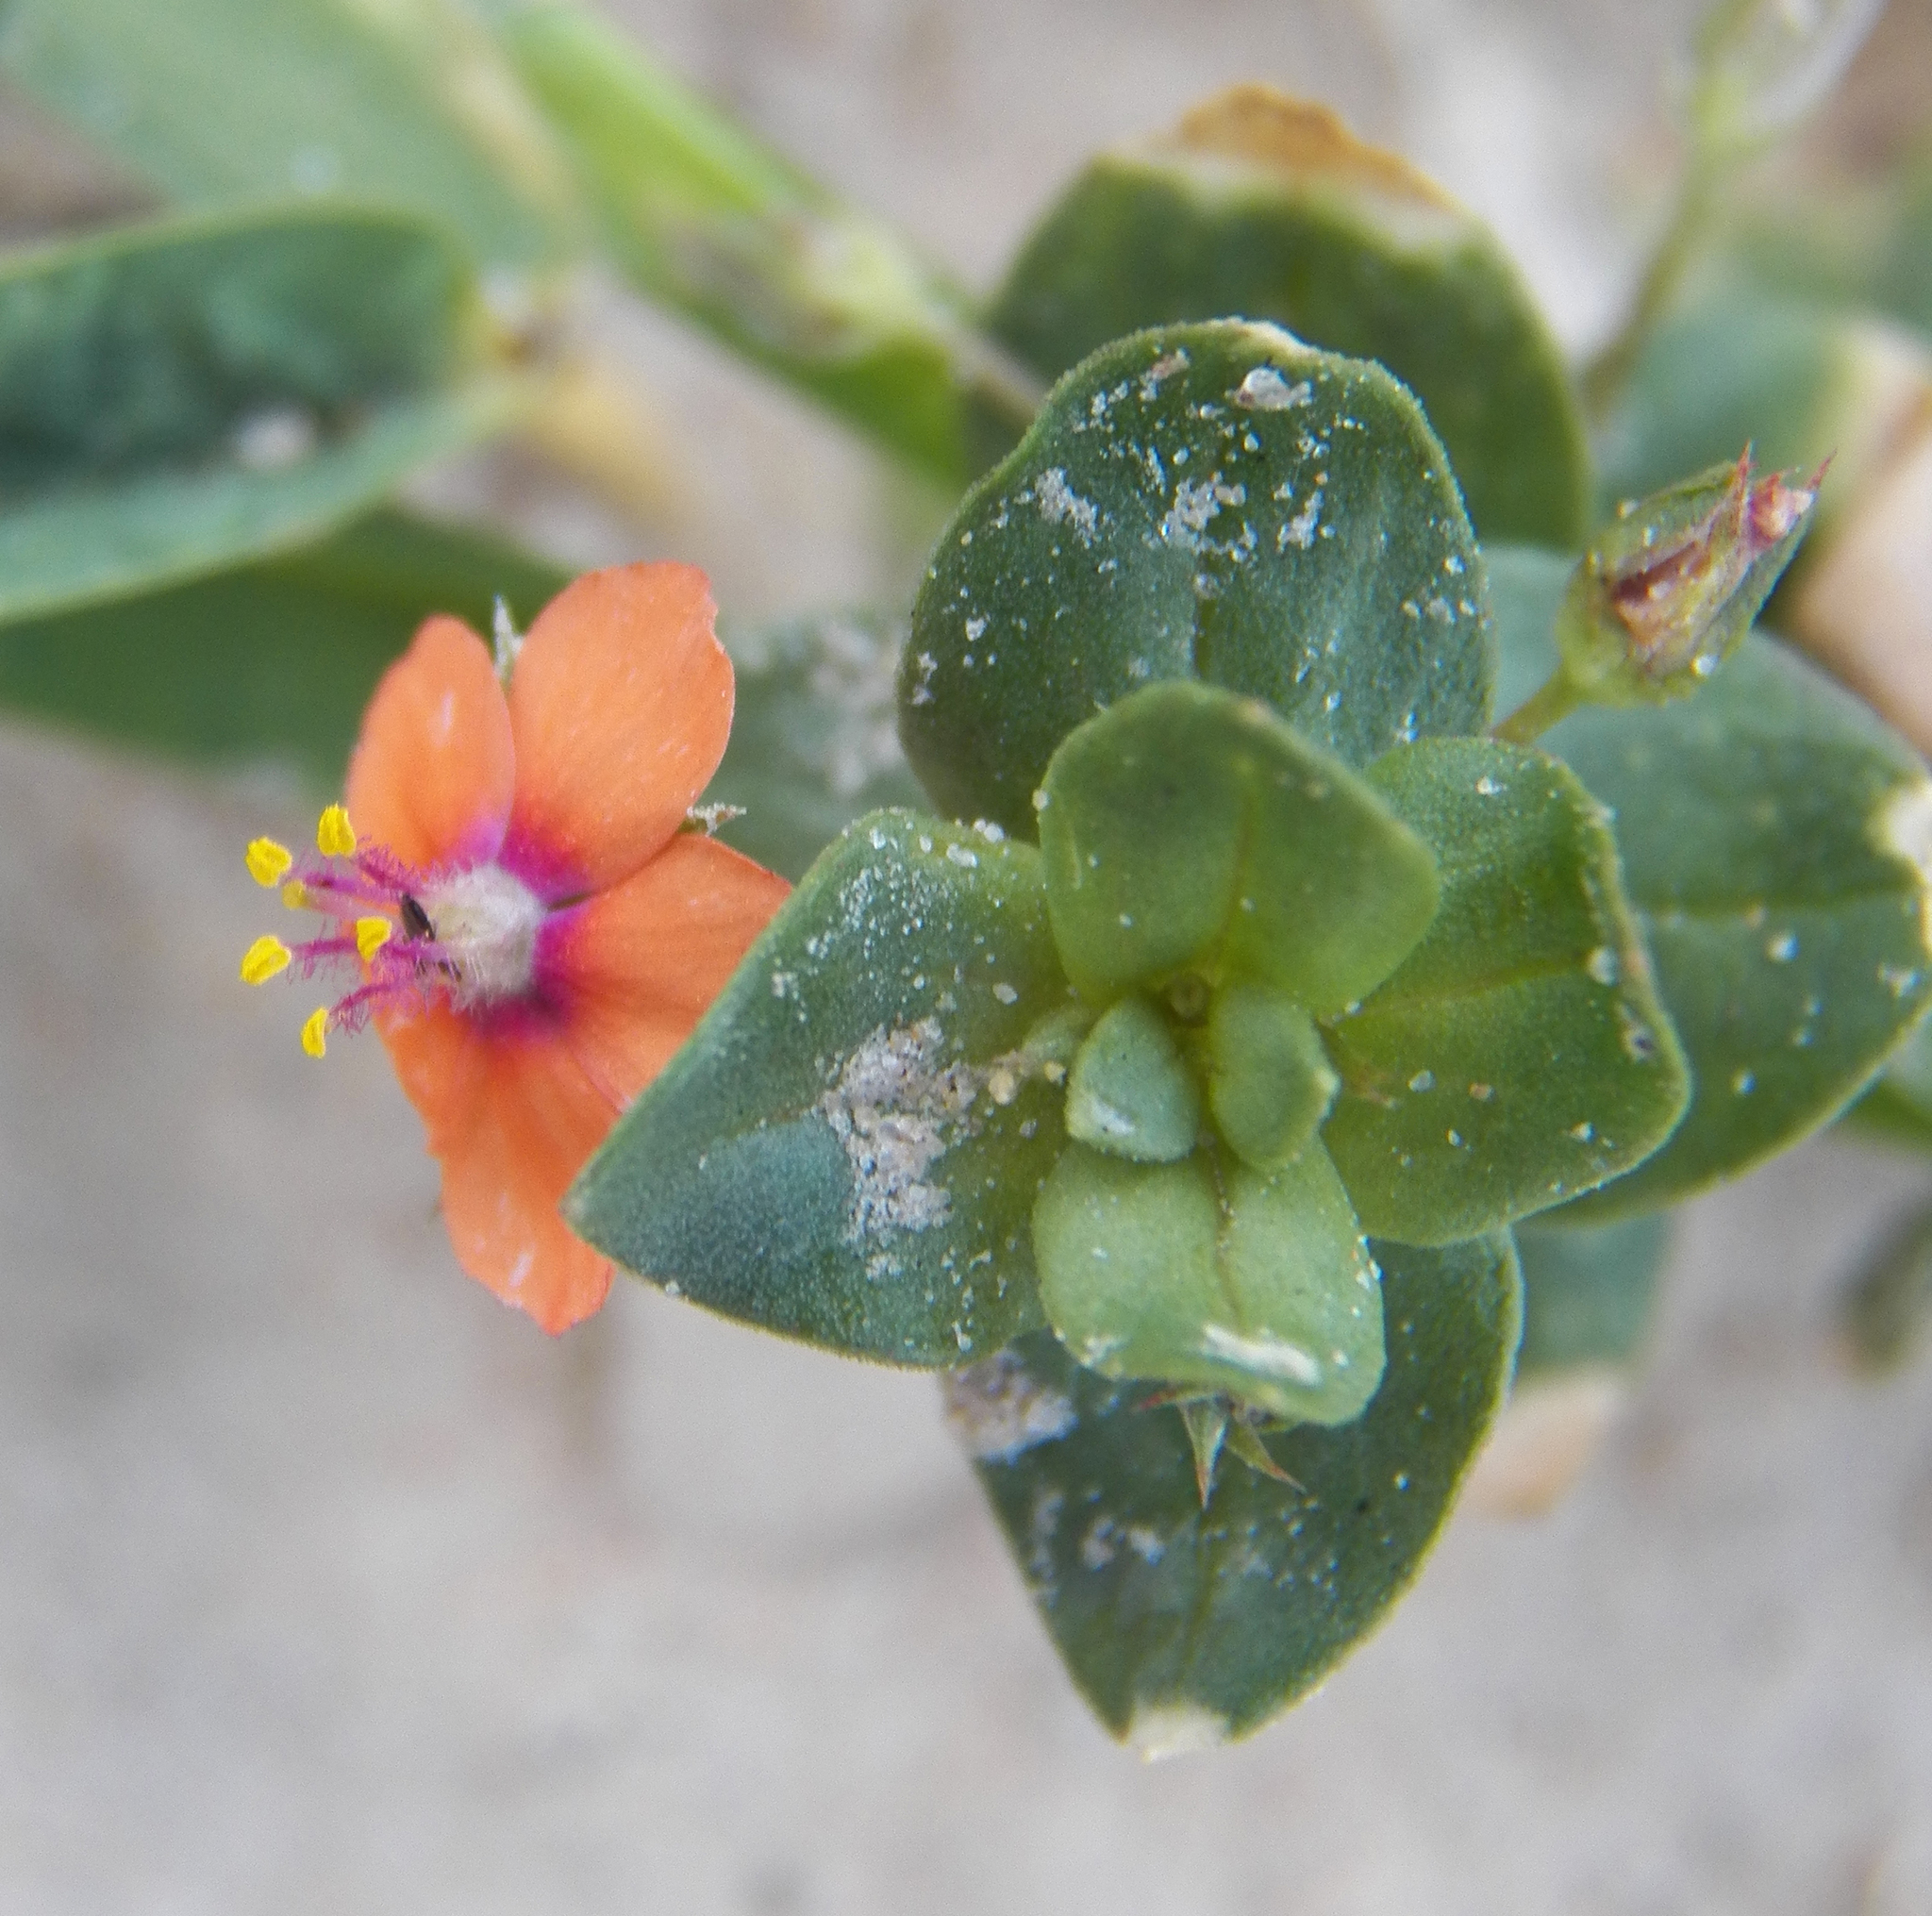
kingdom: Plantae
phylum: Tracheophyta
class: Magnoliopsida
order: Ericales
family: Primulaceae
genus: Lysimachia
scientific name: Lysimachia arvensis
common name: Scarlet pimpernel
